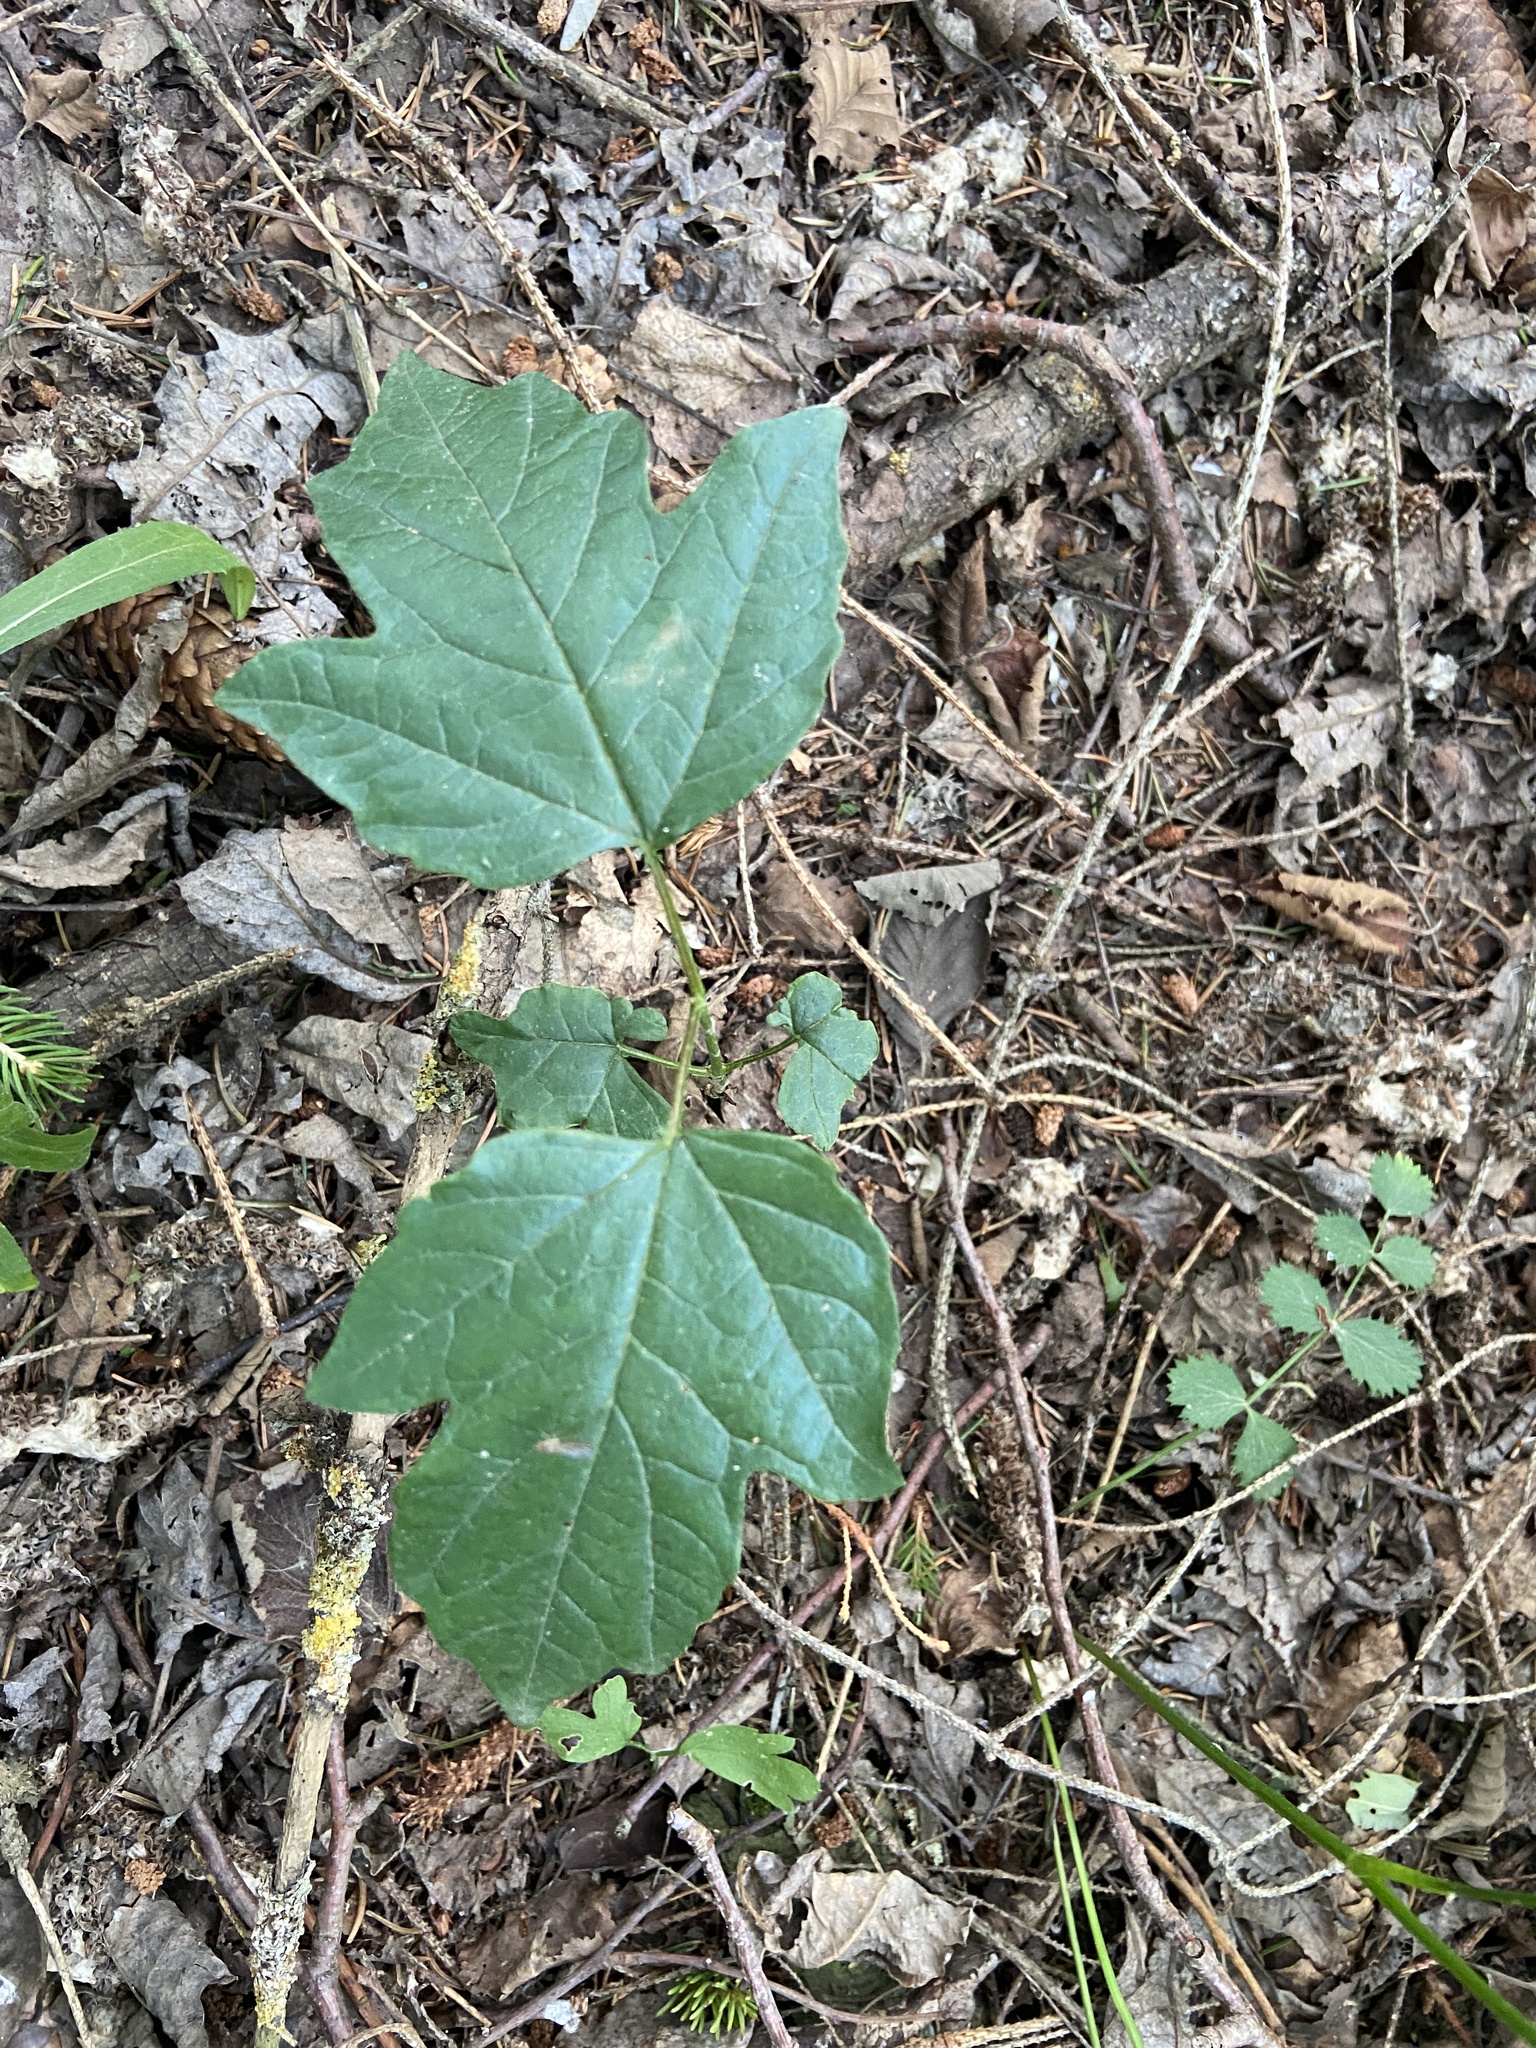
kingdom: Plantae
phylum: Tracheophyta
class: Magnoliopsida
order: Dipsacales
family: Viburnaceae
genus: Viburnum
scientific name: Viburnum opulus
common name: Guelder-rose
